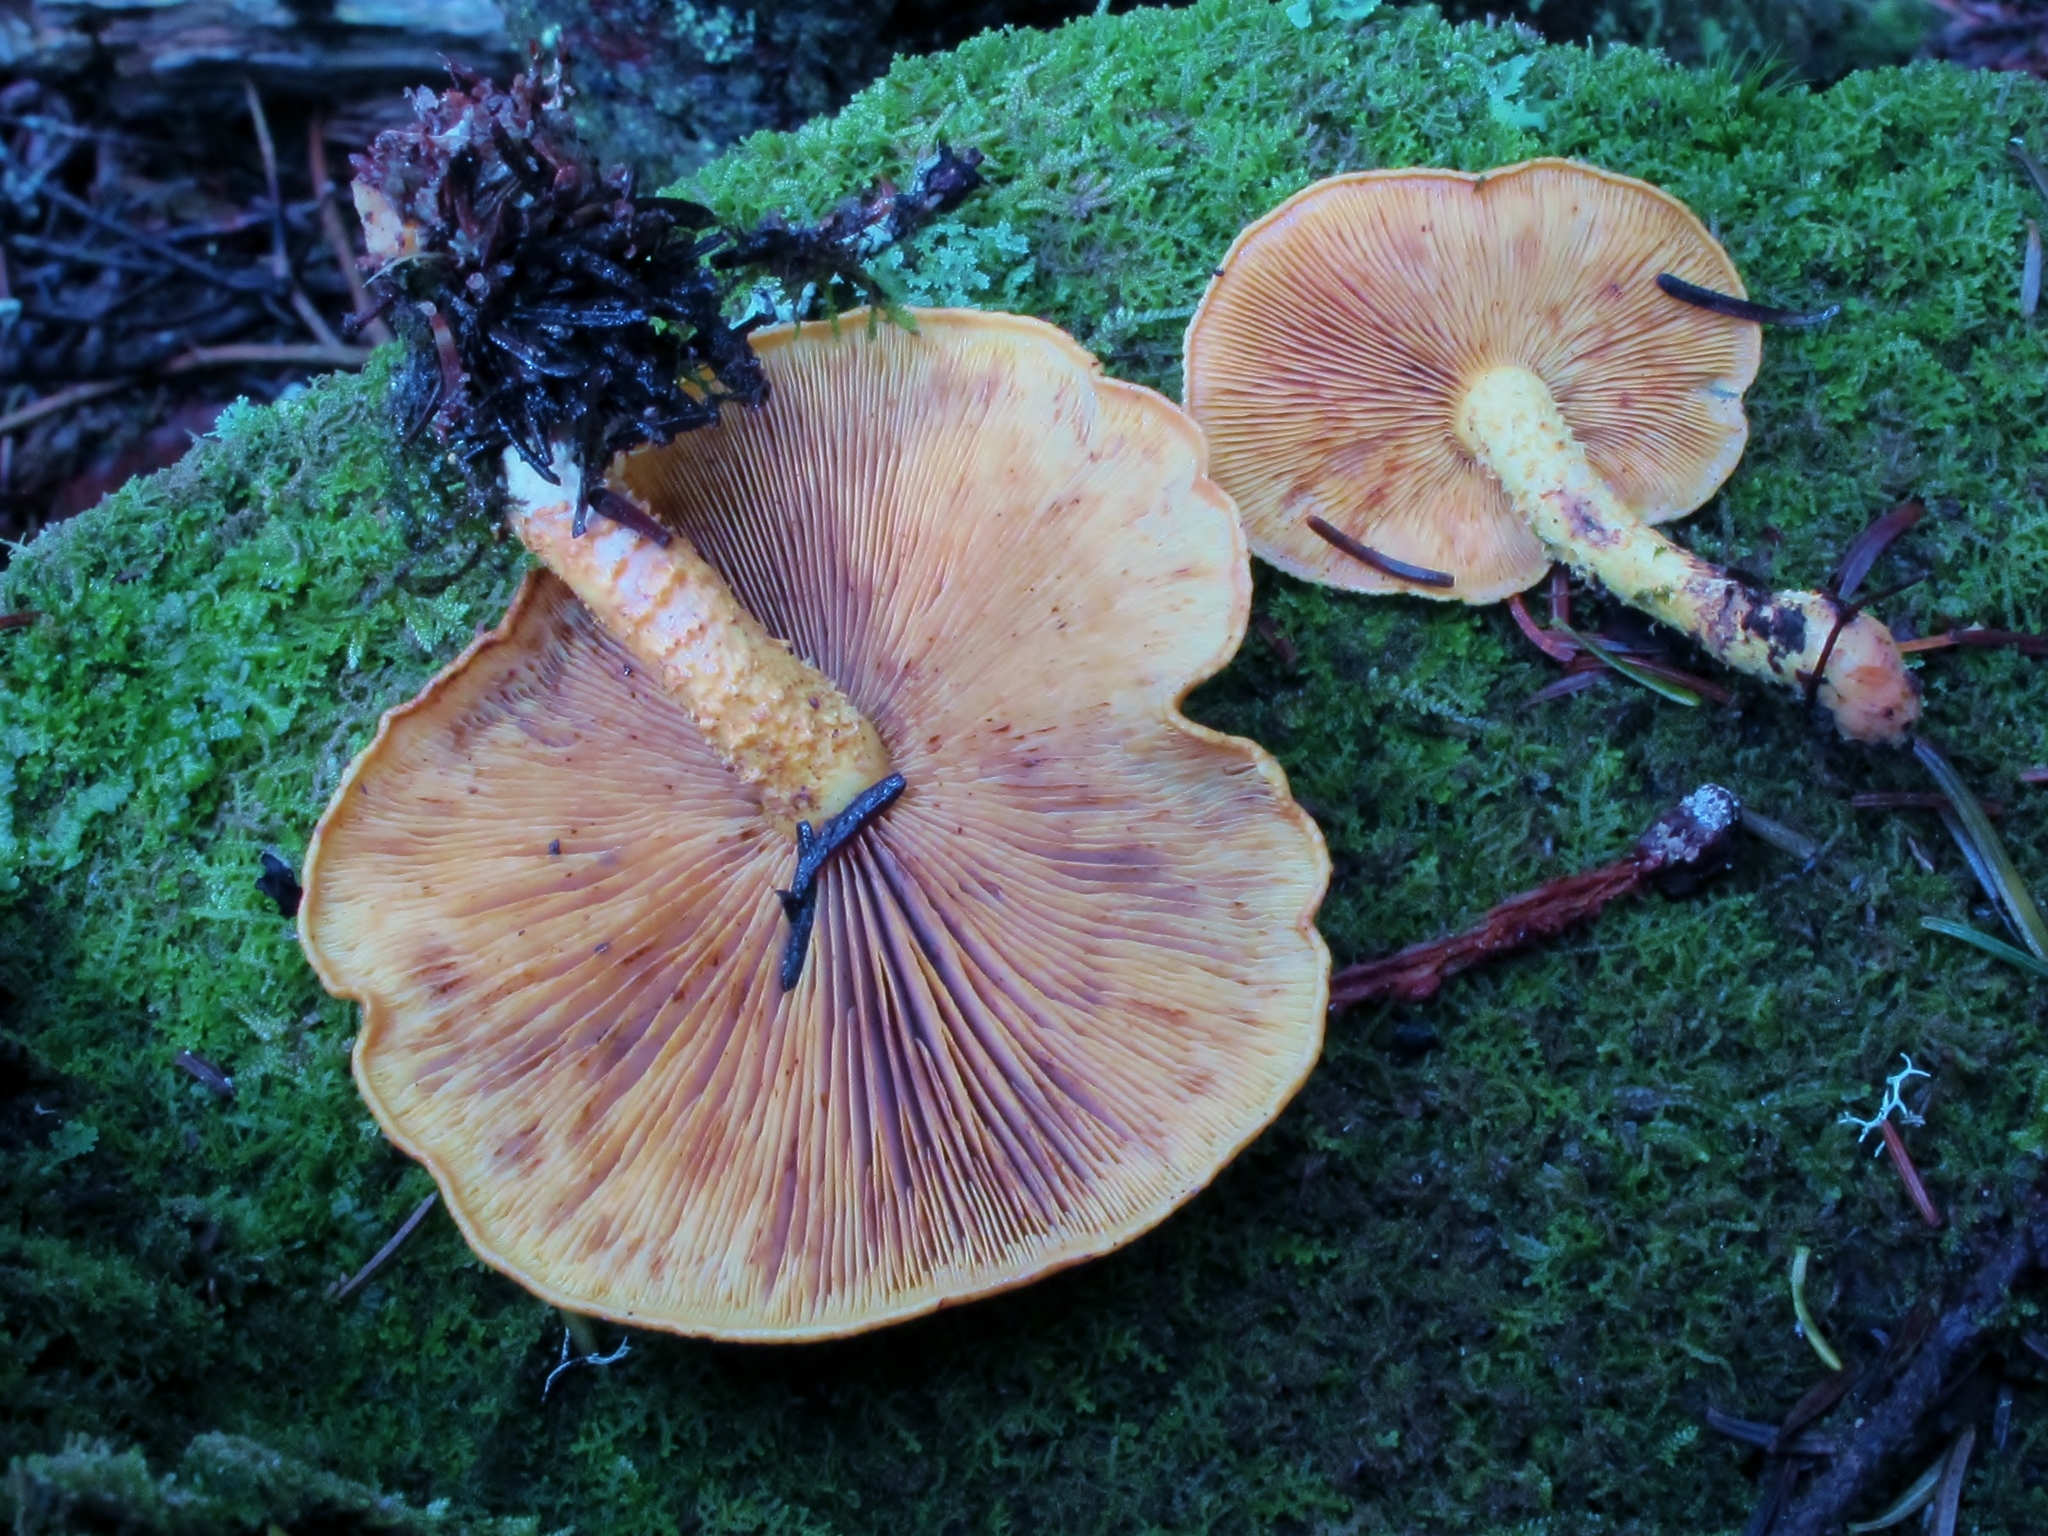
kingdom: Fungi
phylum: Basidiomycota
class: Agaricomycetes
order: Agaricales
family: Strophariaceae
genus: Pholiota
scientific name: Pholiota flammans
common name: Flaming scalycap
